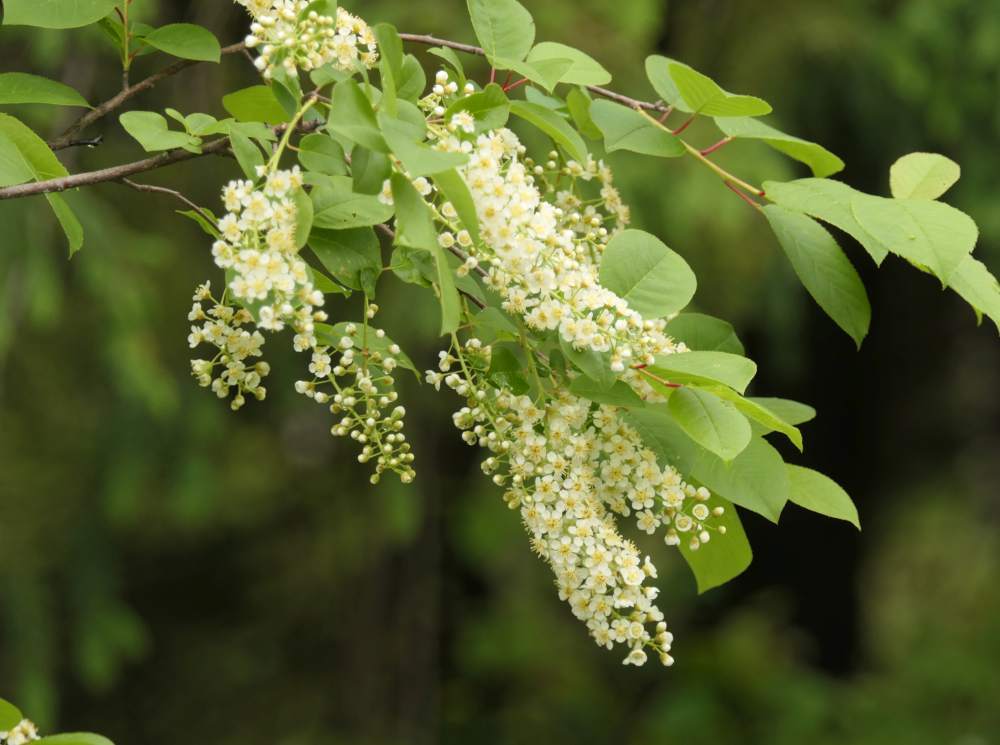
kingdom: Plantae
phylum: Tracheophyta
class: Magnoliopsida
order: Rosales
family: Rosaceae
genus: Prunus
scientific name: Prunus virginiana
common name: Chokecherry
